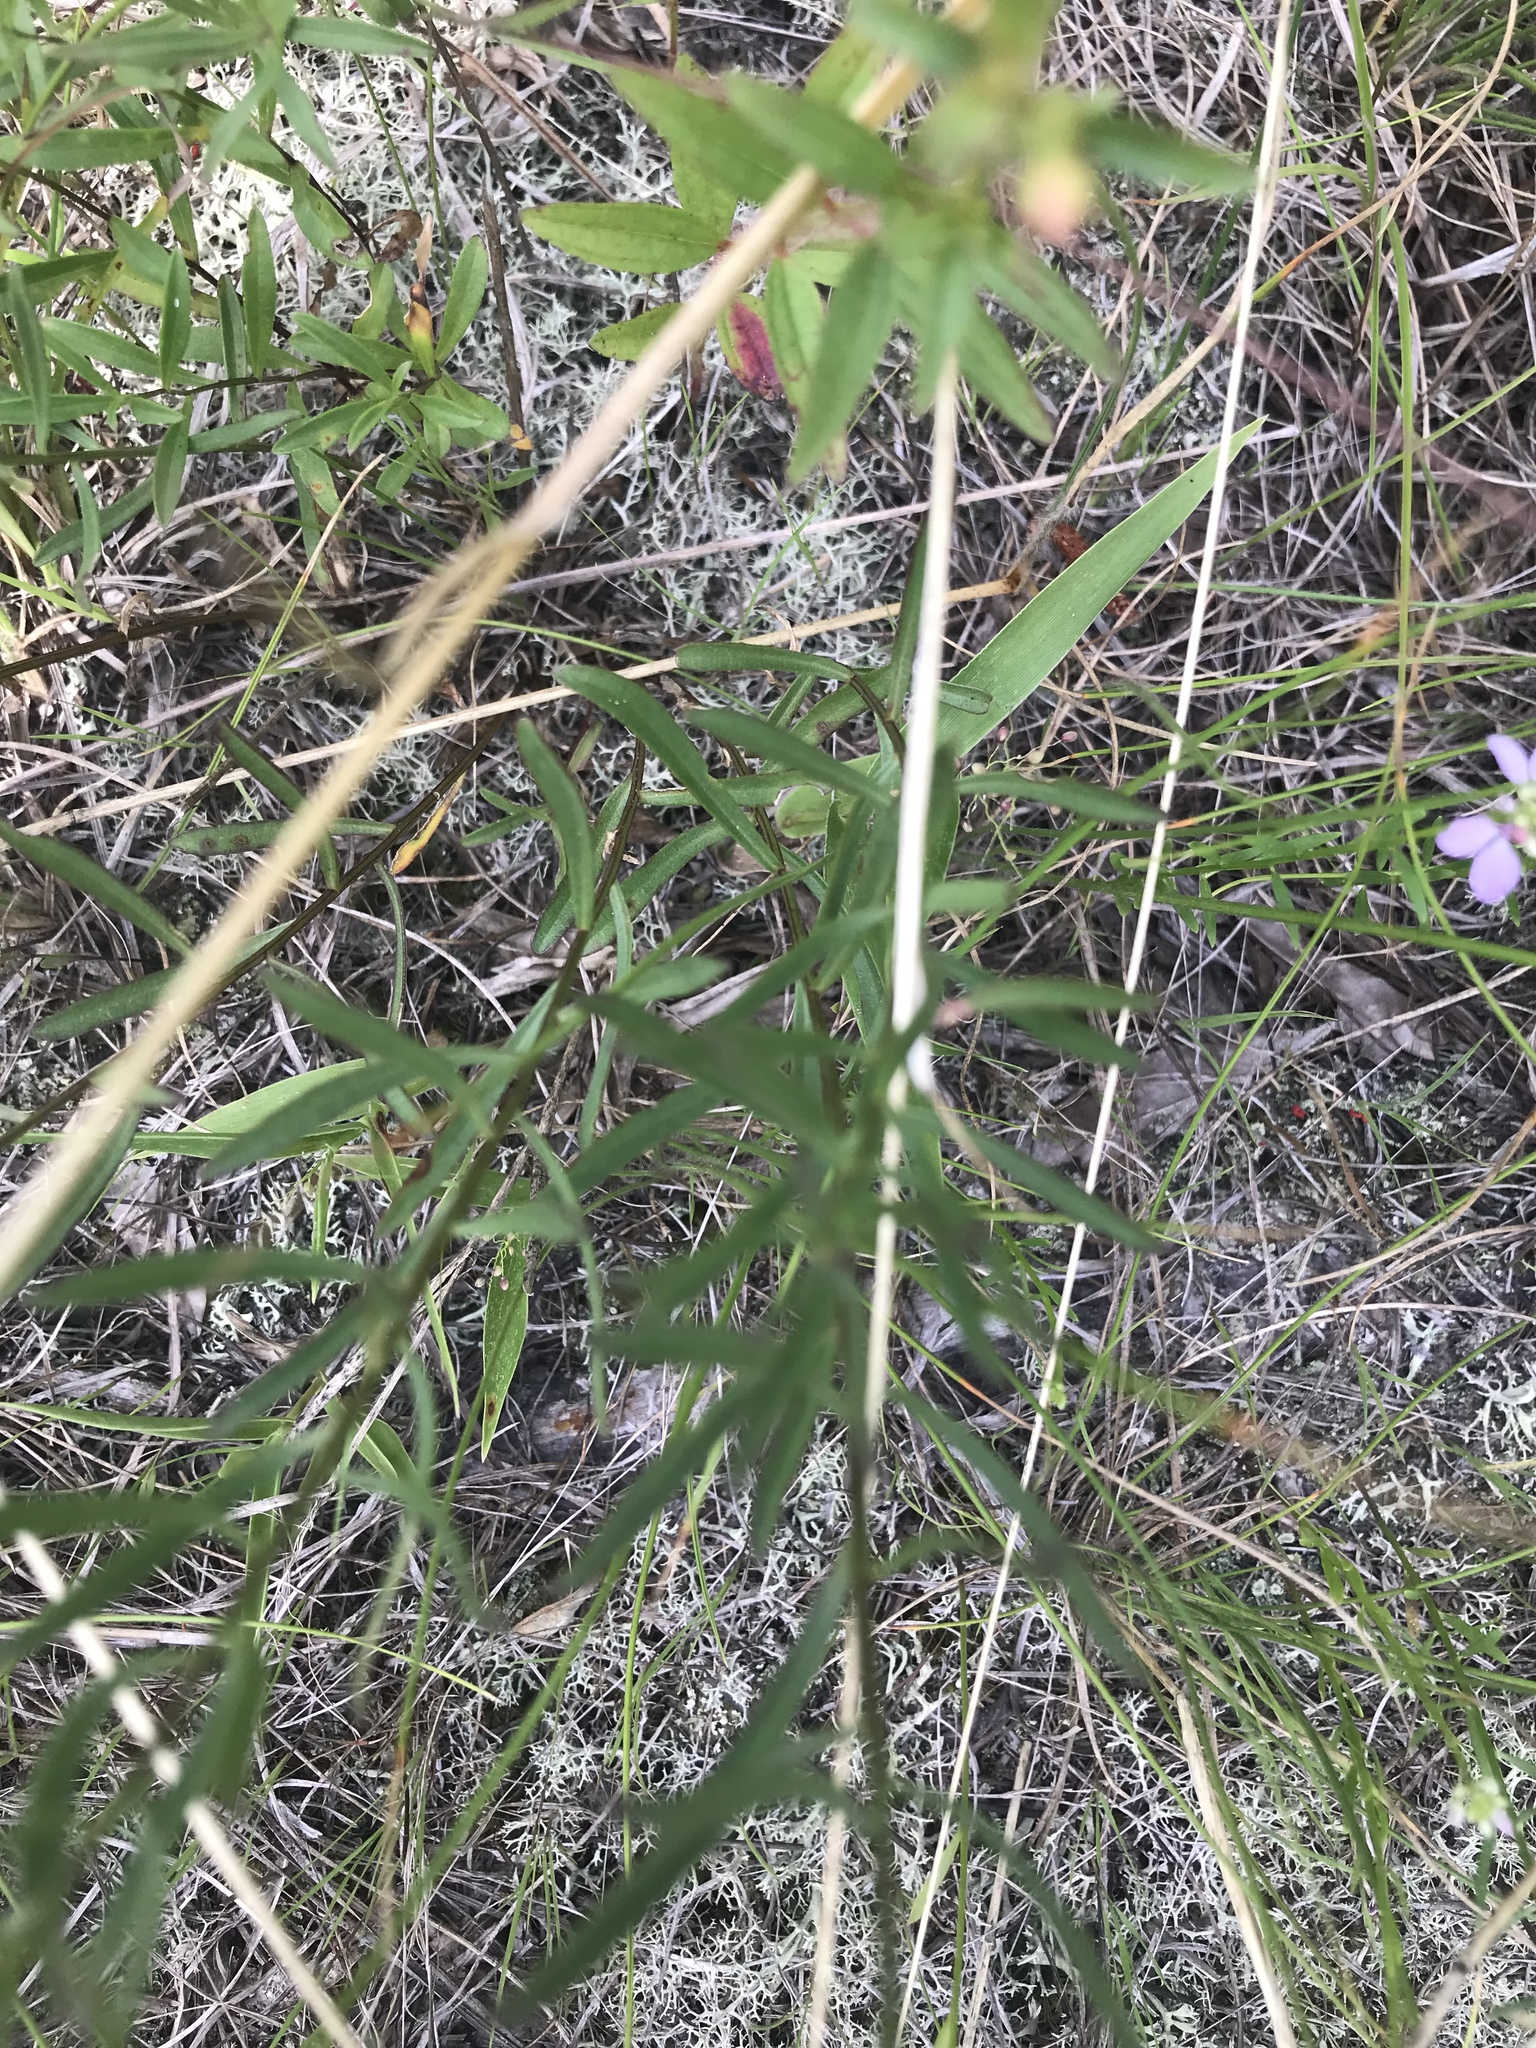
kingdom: Plantae
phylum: Tracheophyta
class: Magnoliopsida
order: Asterales
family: Asteraceae
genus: Sericocarpus
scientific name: Sericocarpus linifolius
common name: Narrow-leaf aster
